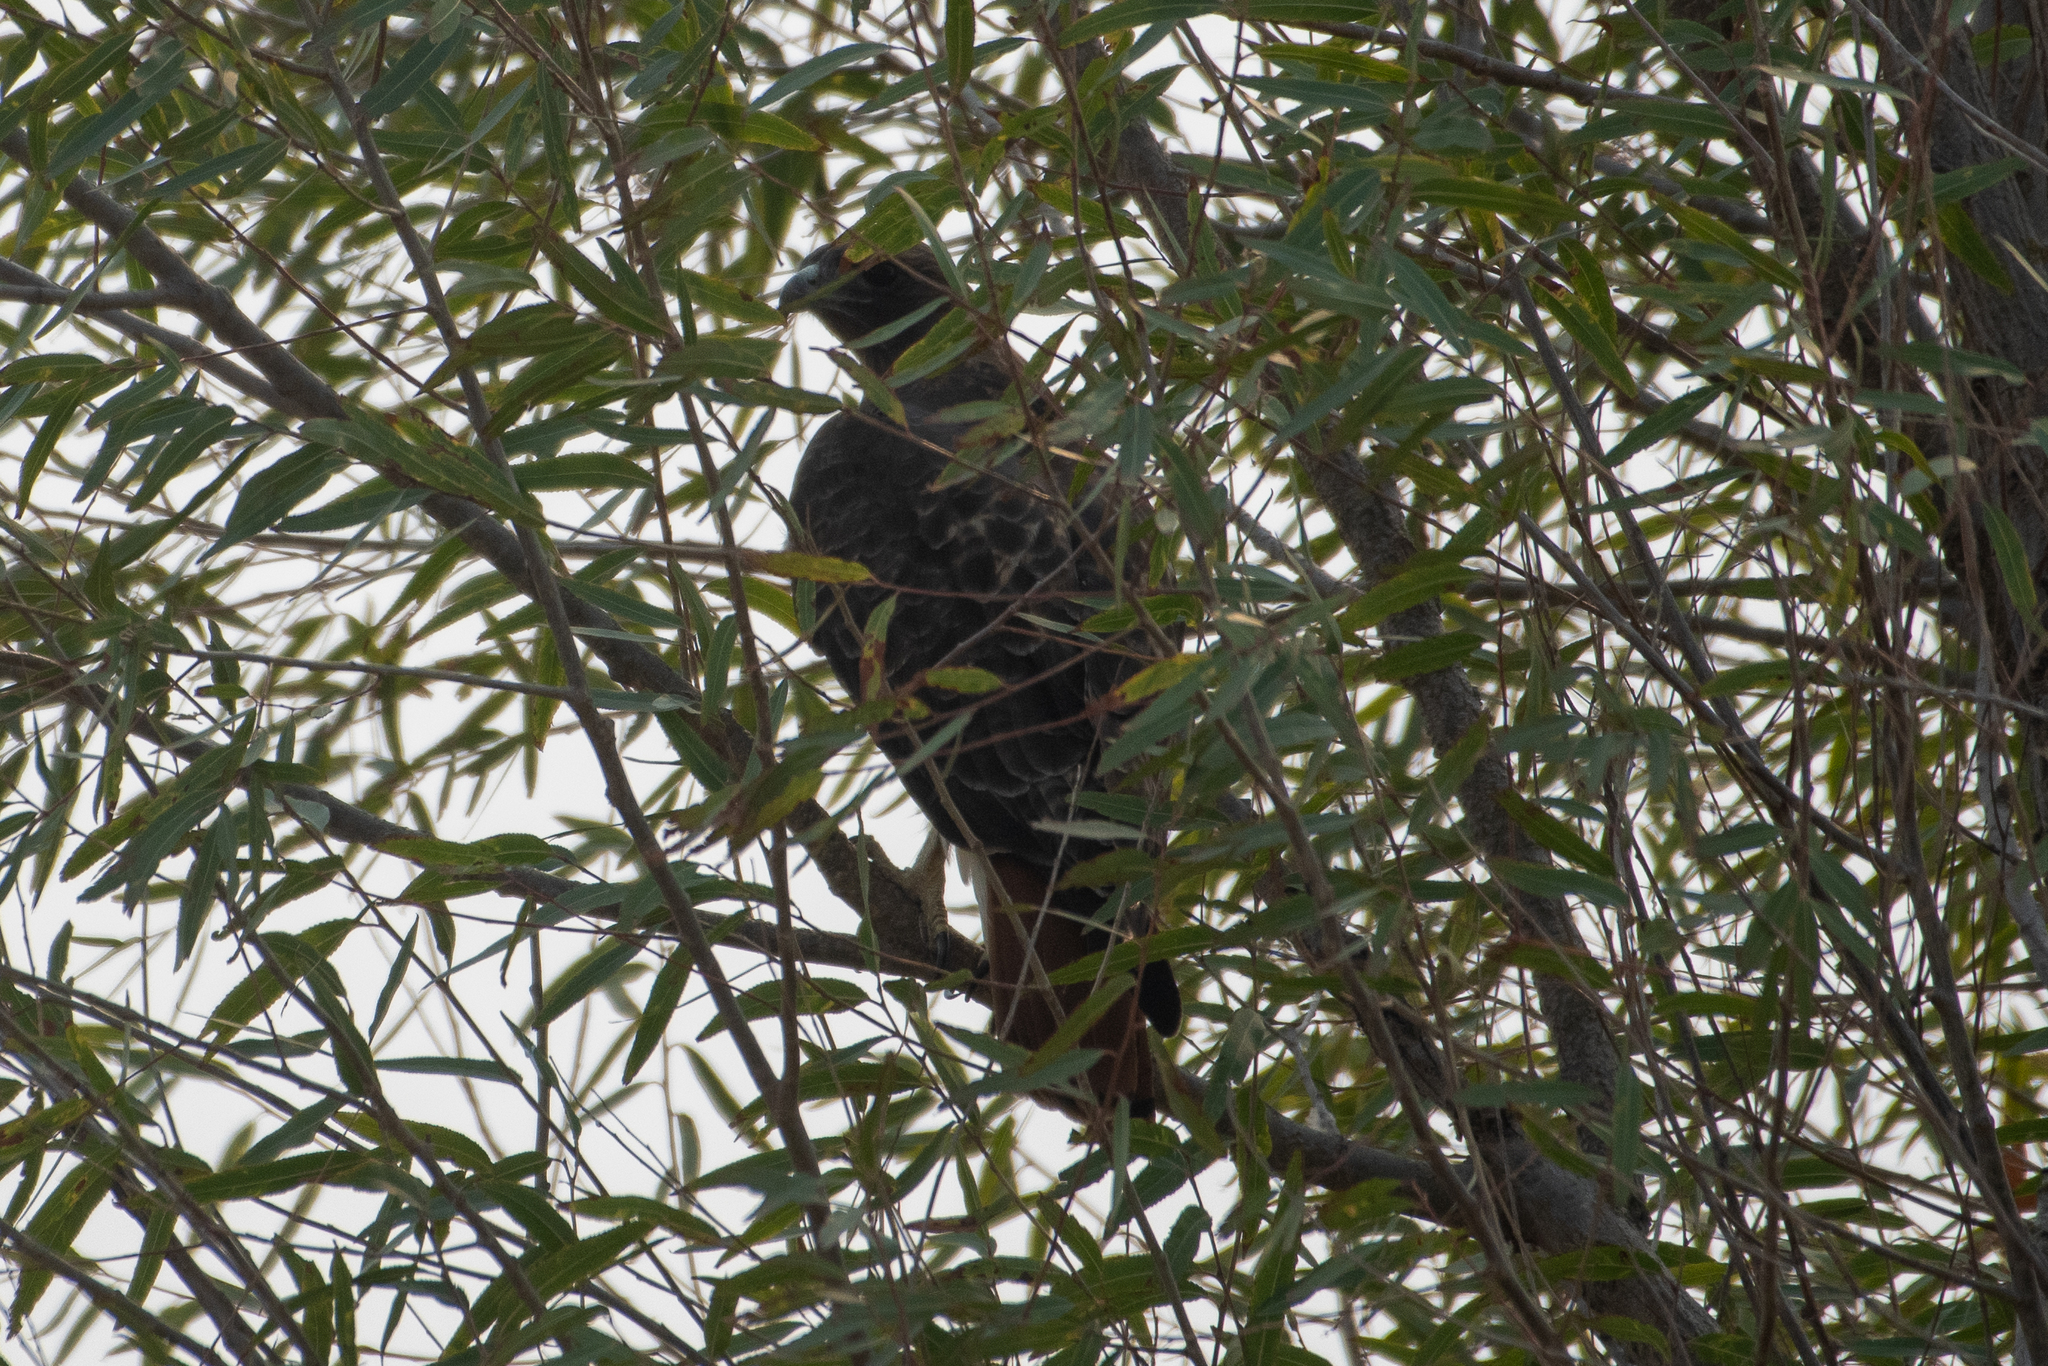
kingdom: Animalia
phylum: Chordata
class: Aves
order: Accipitriformes
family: Accipitridae
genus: Buteo
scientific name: Buteo jamaicensis
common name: Red-tailed hawk
